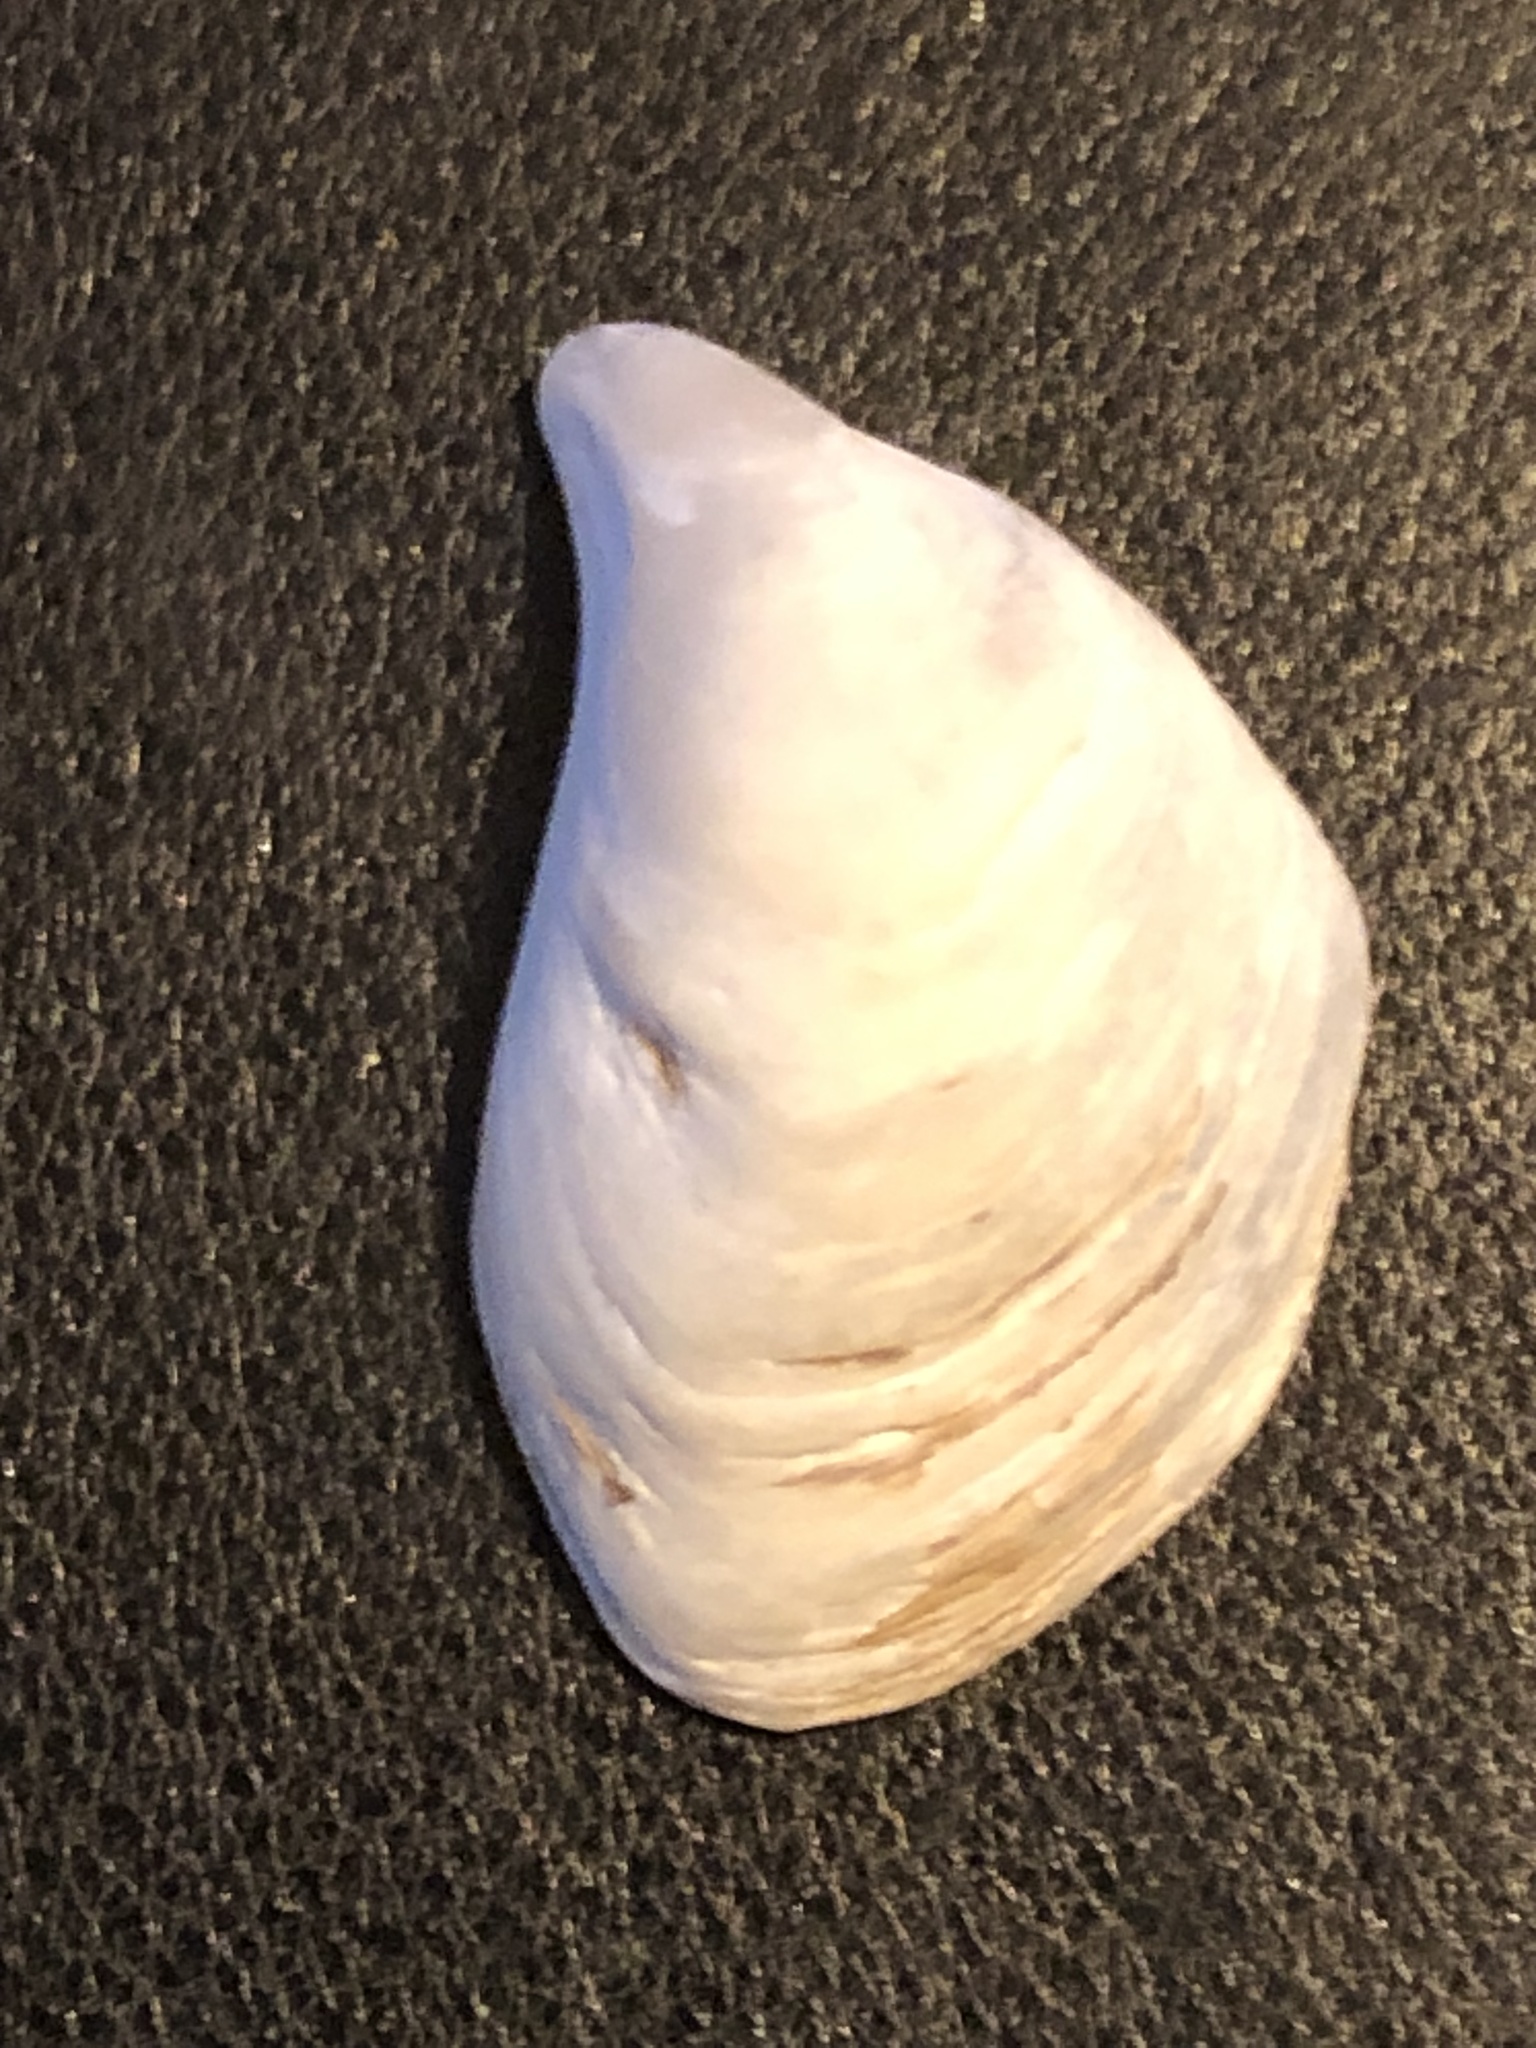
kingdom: Animalia
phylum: Mollusca
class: Bivalvia
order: Myida
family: Dreissenidae
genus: Dreissena
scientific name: Dreissena bugensis
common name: Quagga mussel
